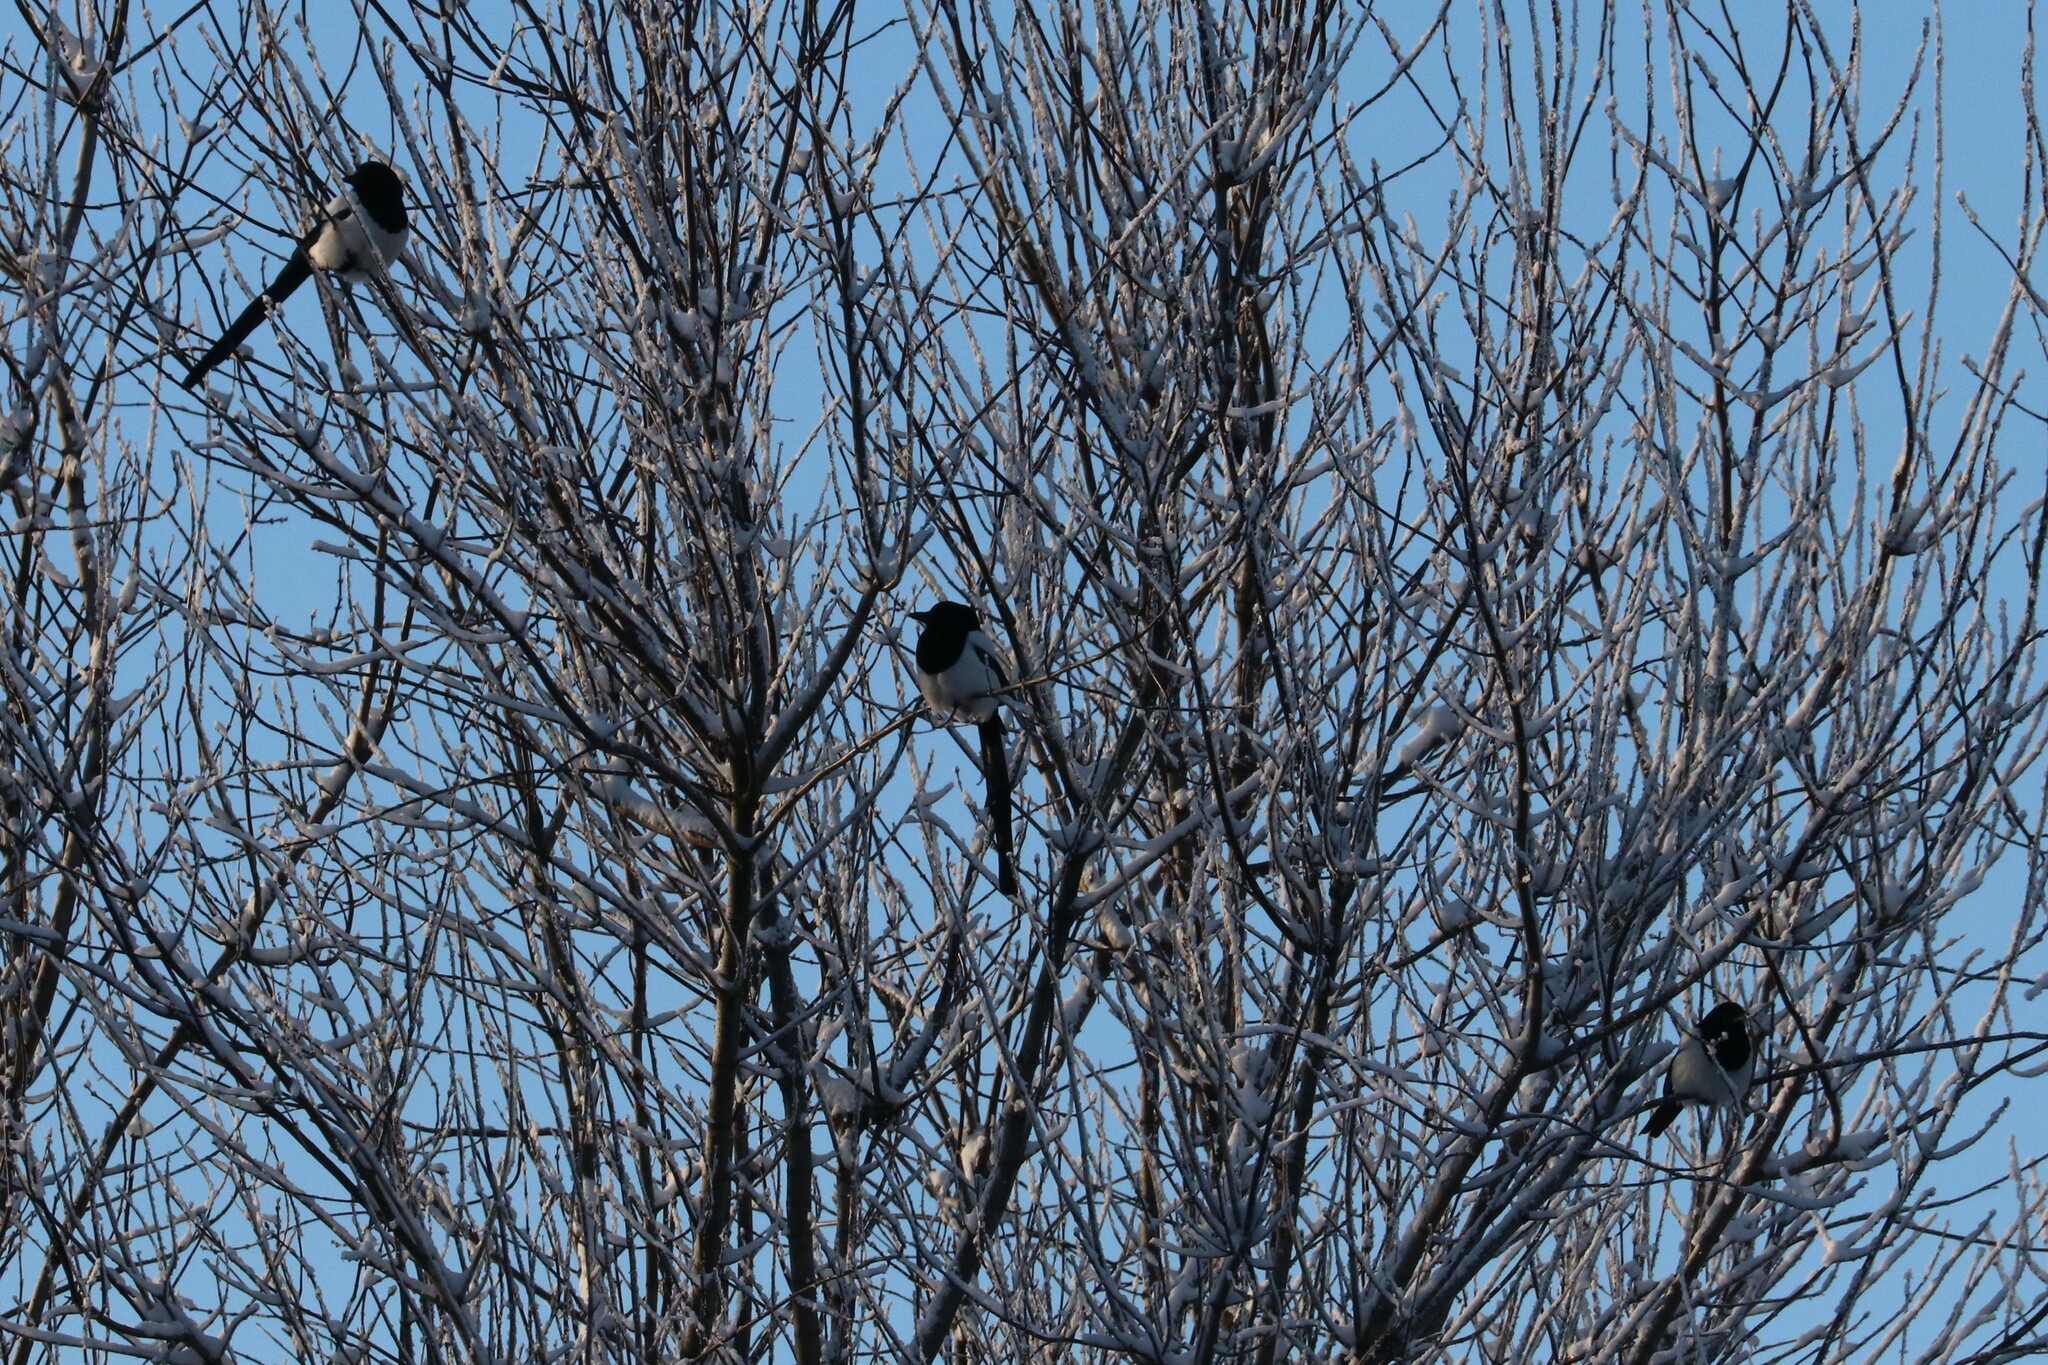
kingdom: Animalia
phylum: Chordata
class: Aves
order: Passeriformes
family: Corvidae
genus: Pica
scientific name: Pica pica
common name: Eurasian magpie
